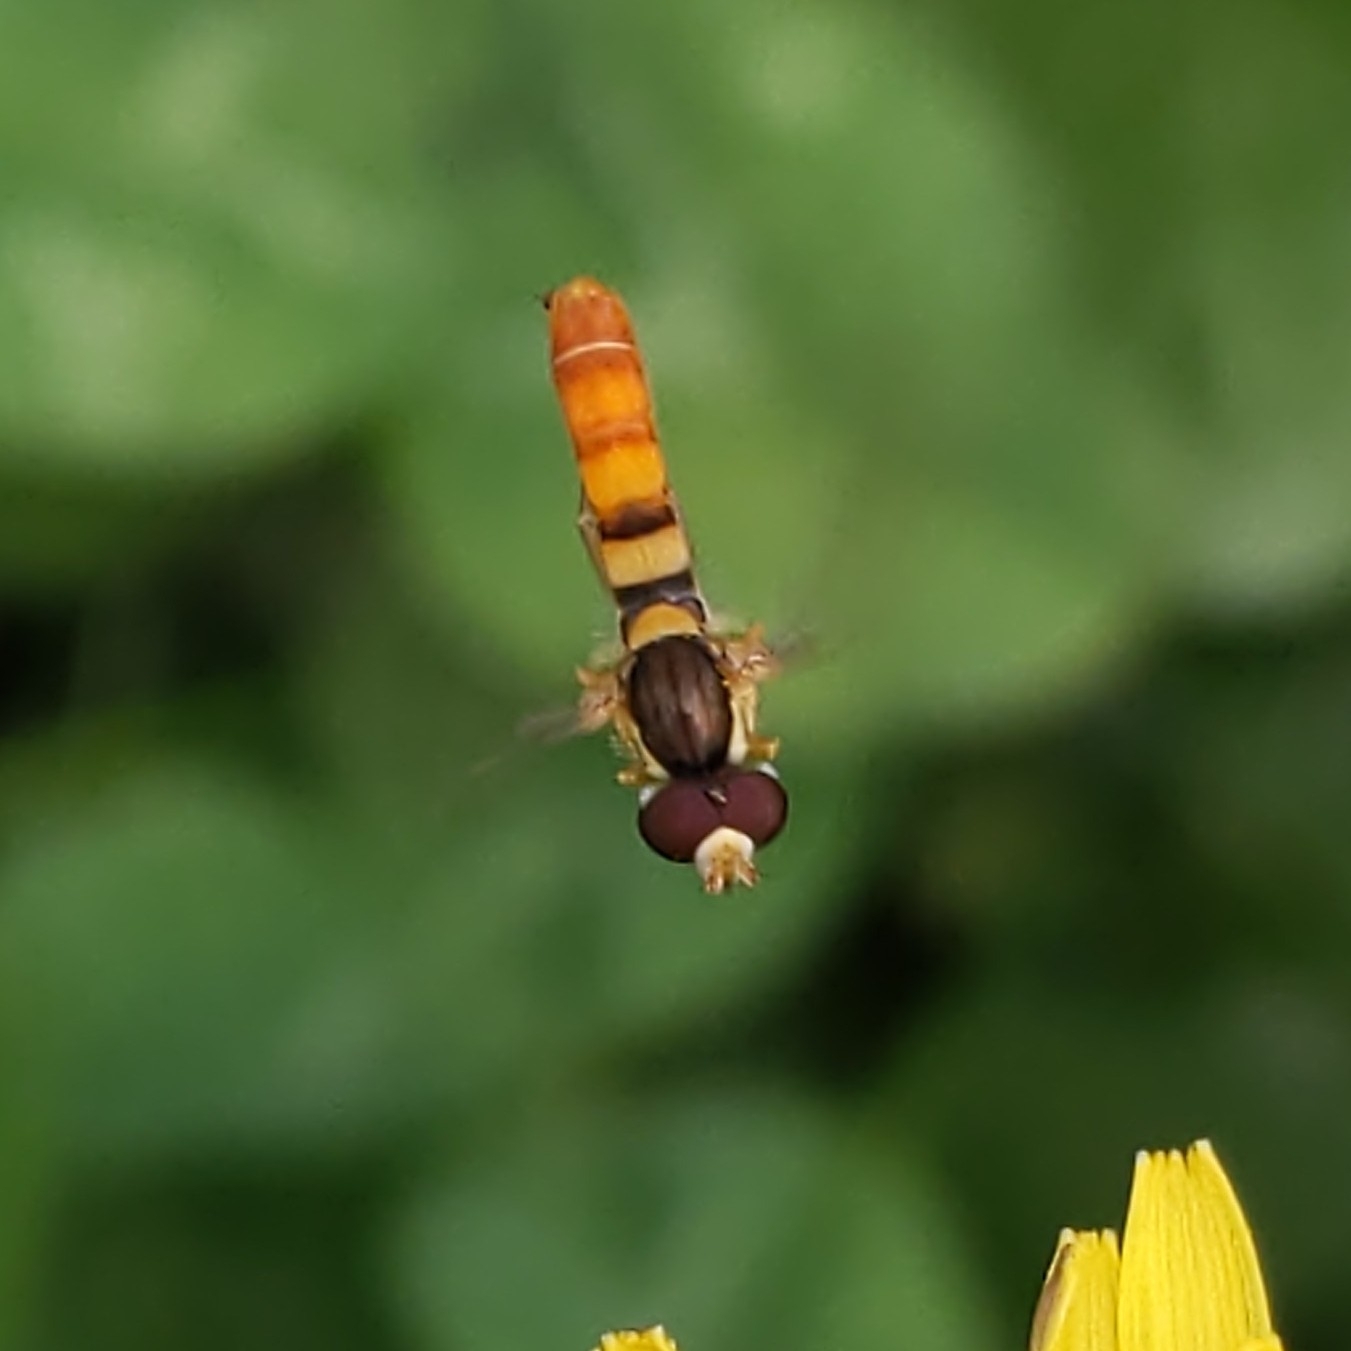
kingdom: Animalia
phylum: Arthropoda
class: Insecta
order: Diptera
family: Syrphidae
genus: Sphaerophoria
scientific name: Sphaerophoria contigua
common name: Tufted globetail
